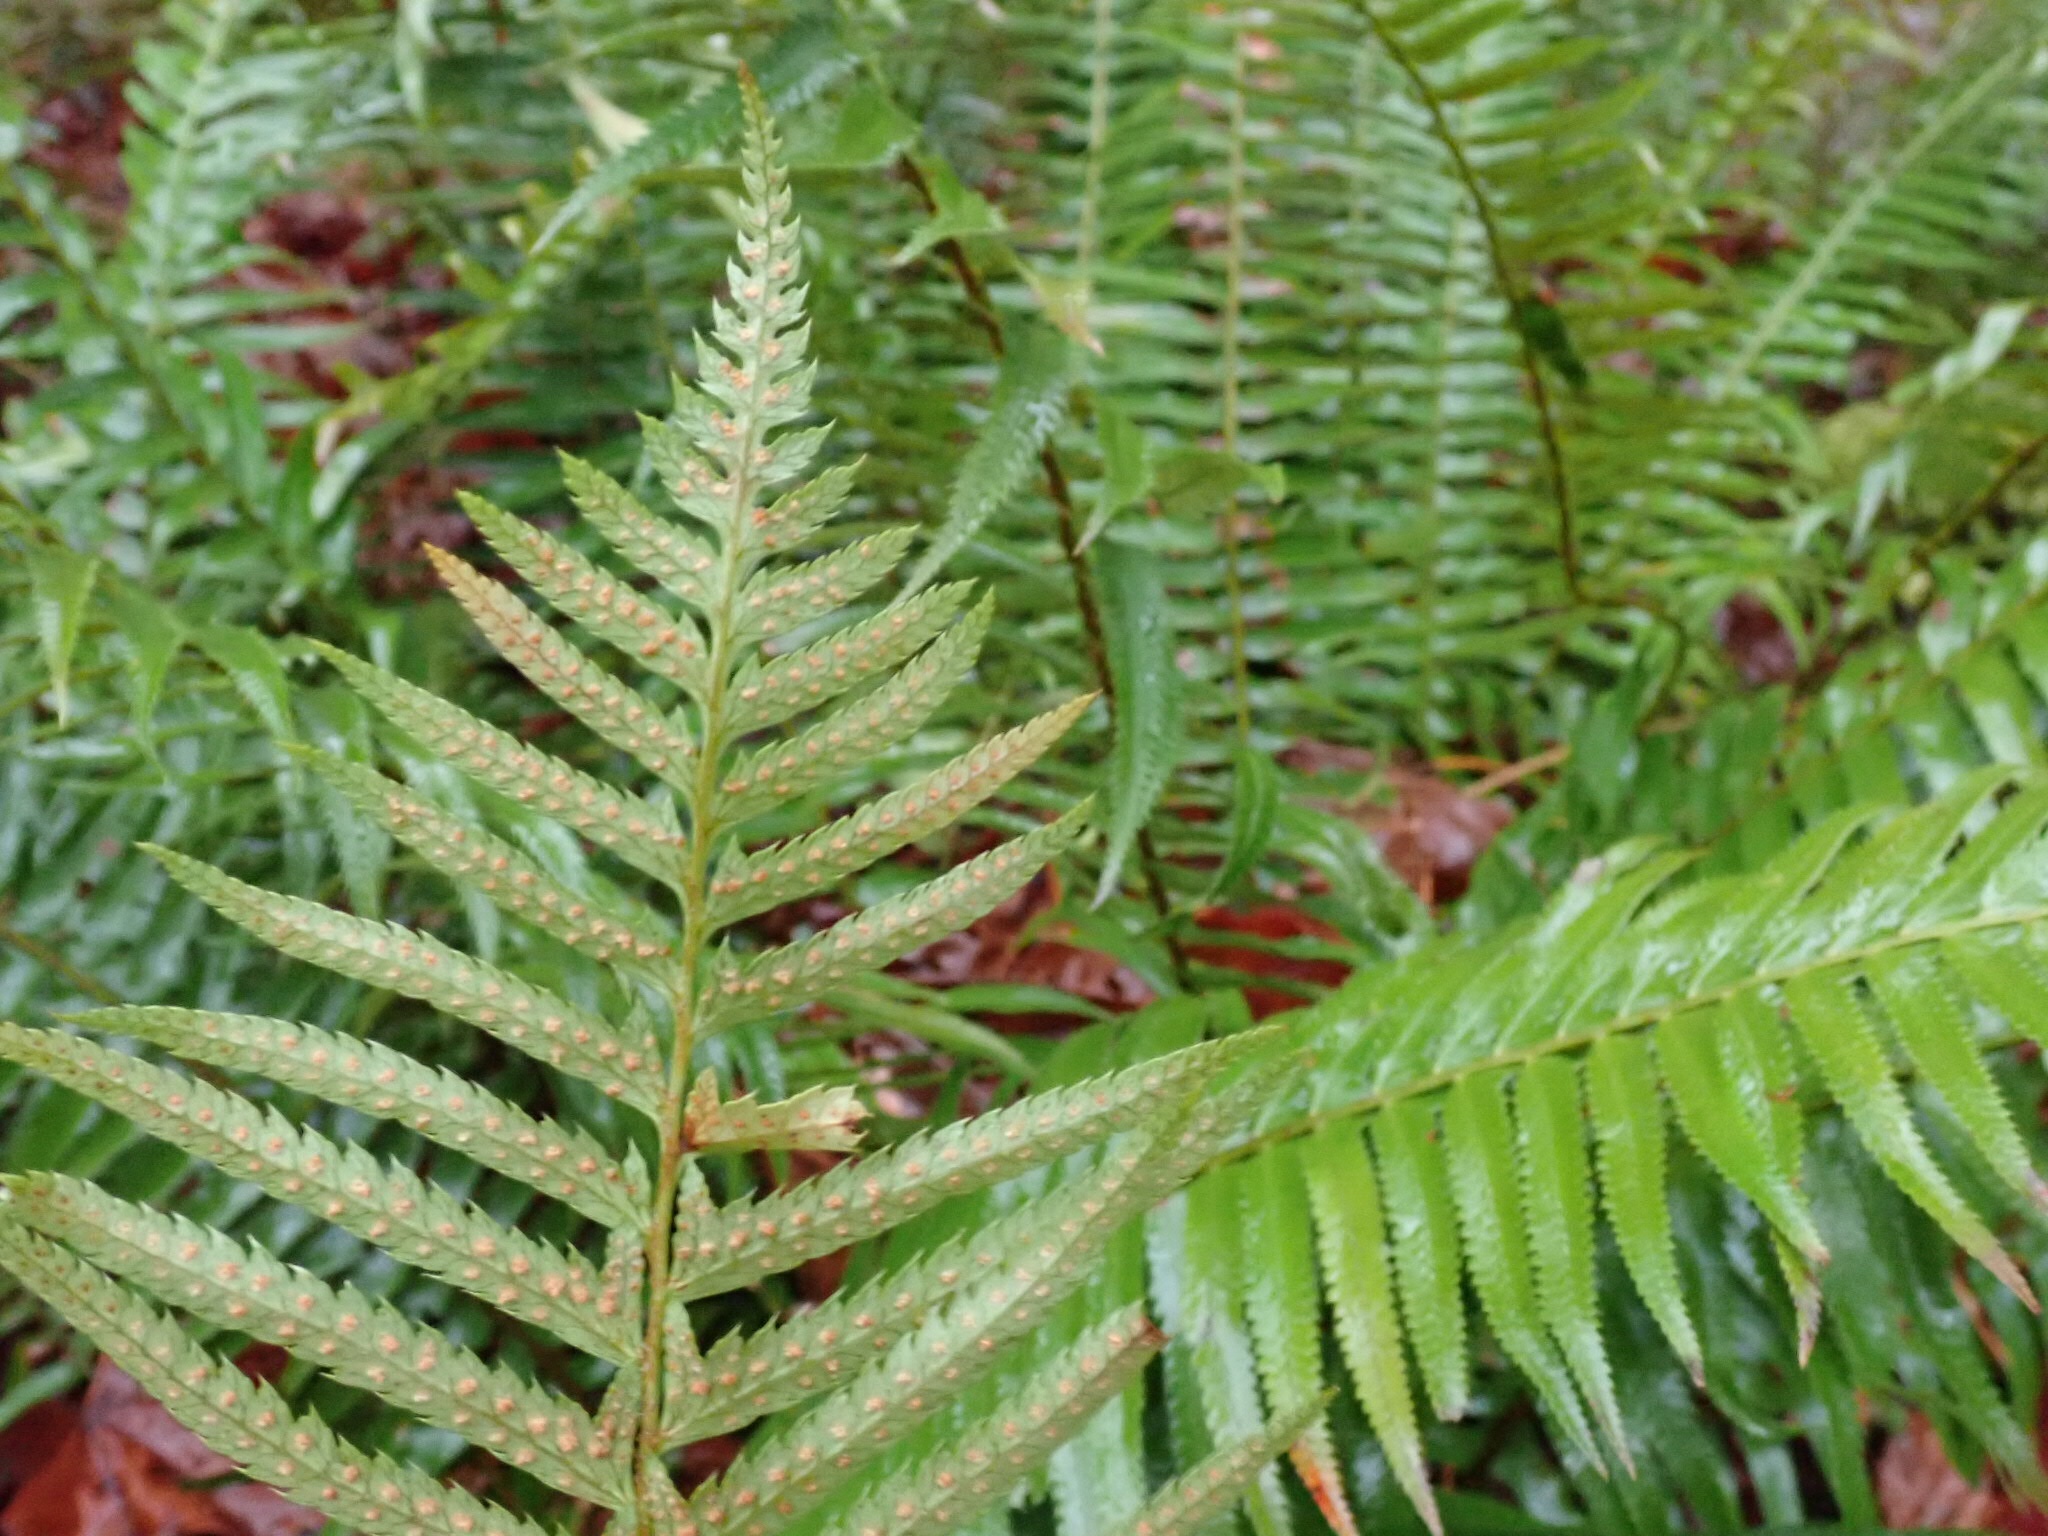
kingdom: Plantae
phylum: Tracheophyta
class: Polypodiopsida
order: Polypodiales
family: Dryopteridaceae
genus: Polystichum
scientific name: Polystichum munitum
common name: Western sword-fern
